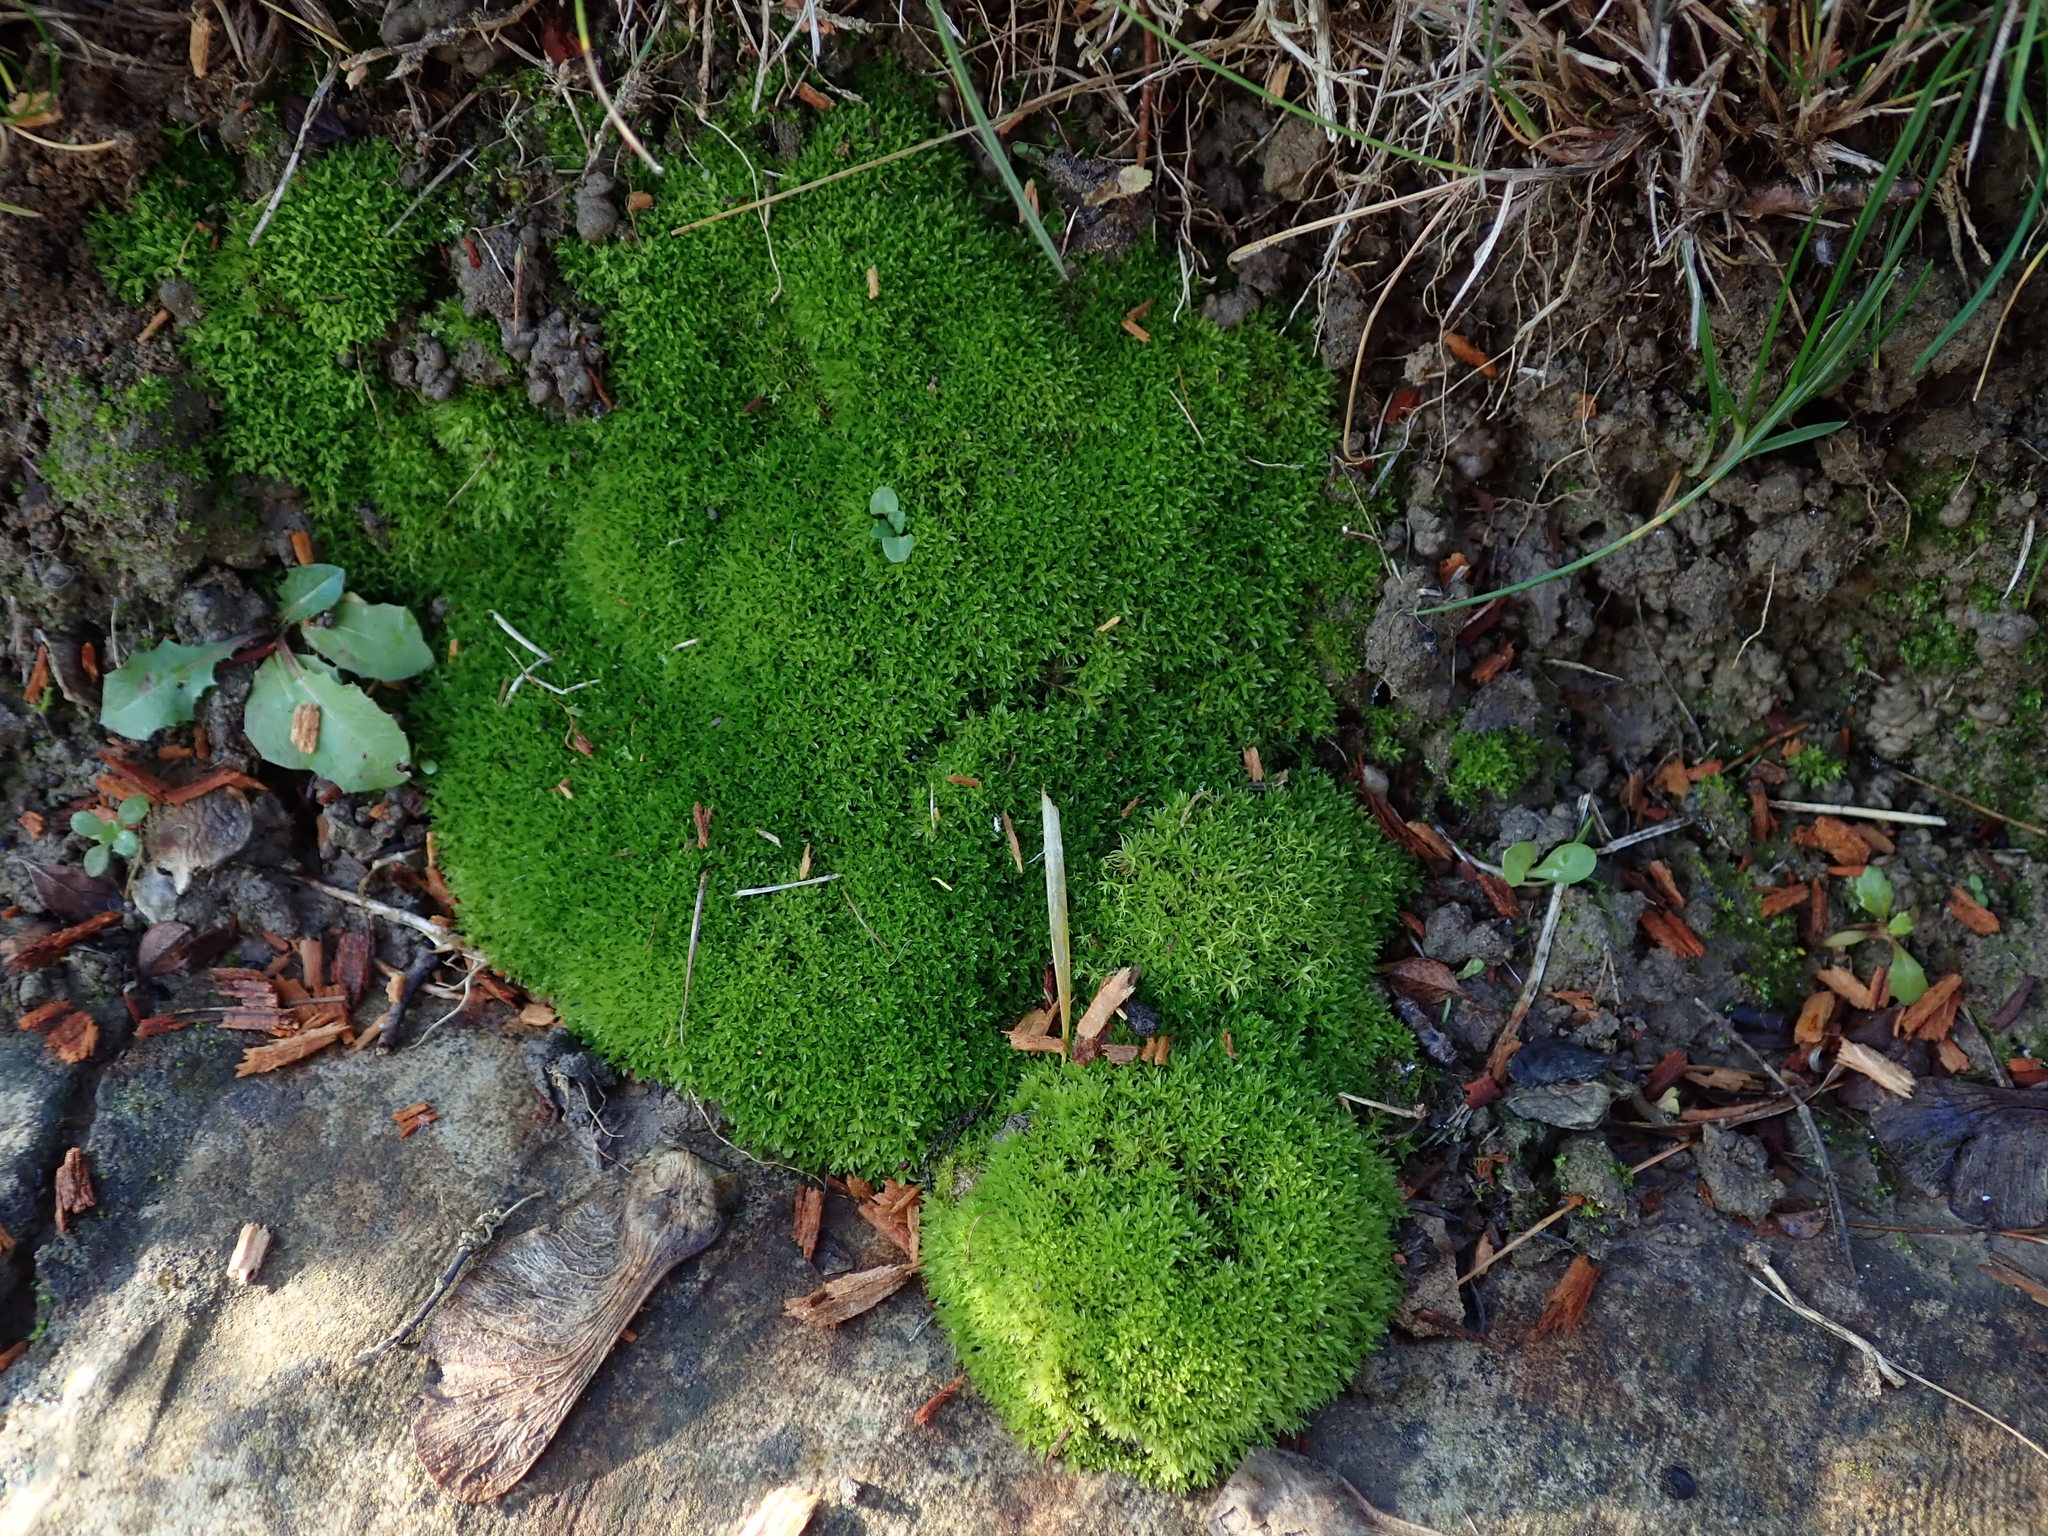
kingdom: Plantae
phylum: Bryophyta
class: Bryopsida
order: Pottiales
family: Pottiaceae
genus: Barbula
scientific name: Barbula unguiculata
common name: Prickly beard moss
